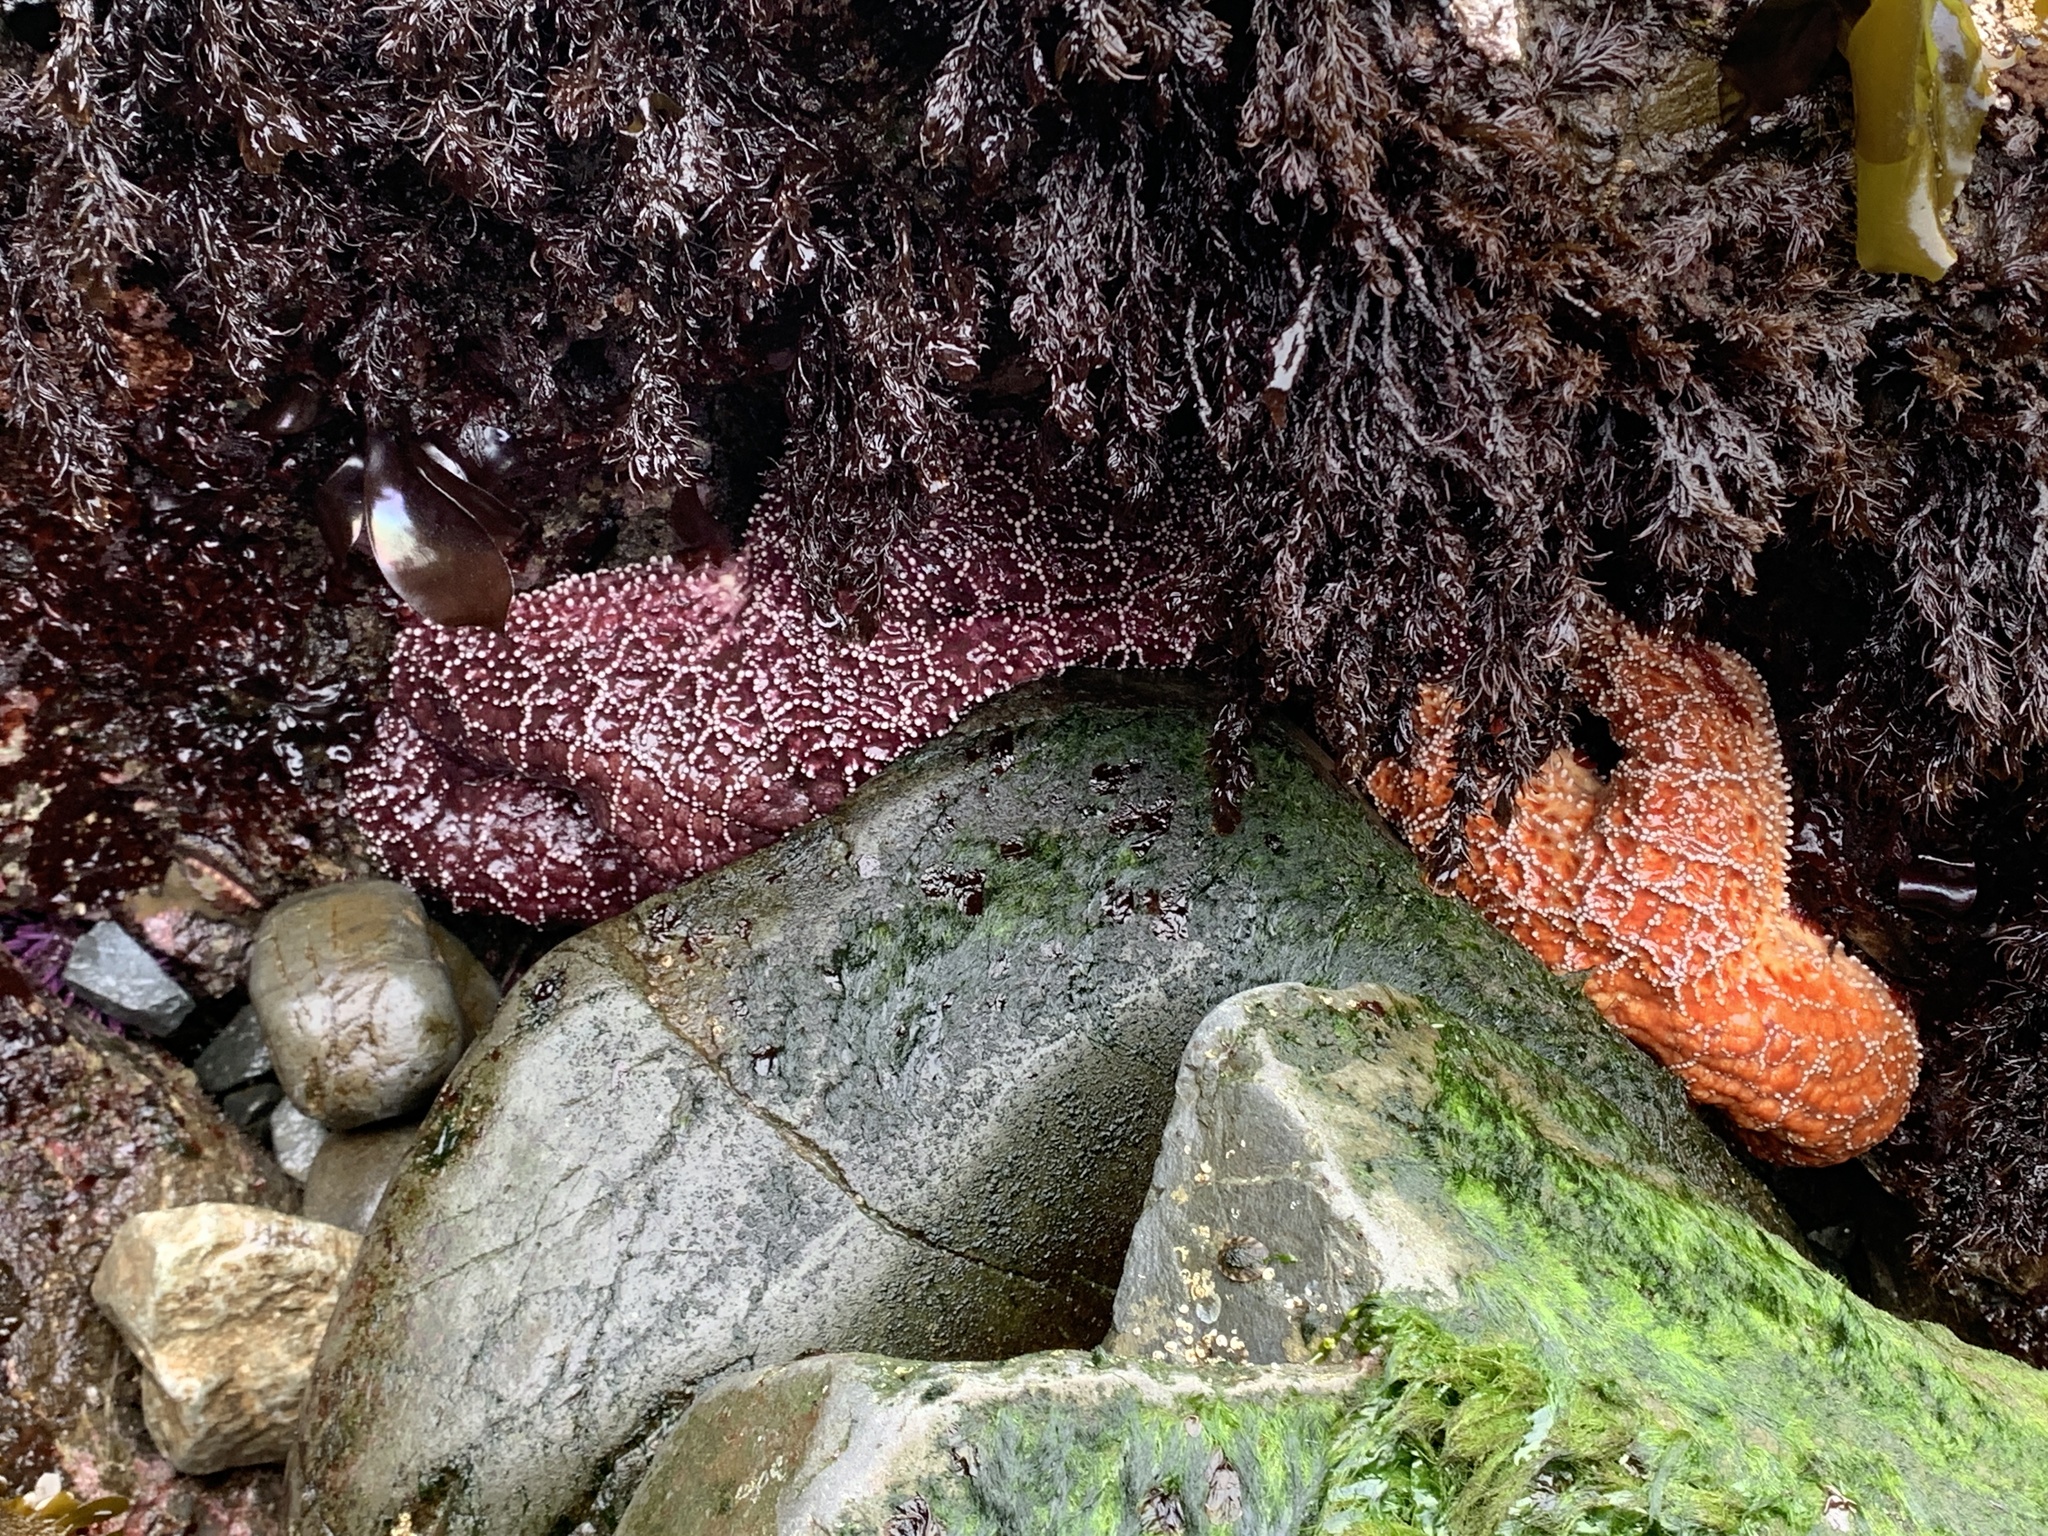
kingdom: Animalia
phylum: Echinodermata
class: Asteroidea
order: Forcipulatida
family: Asteriidae
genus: Pisaster
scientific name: Pisaster ochraceus
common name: Ochre stars
